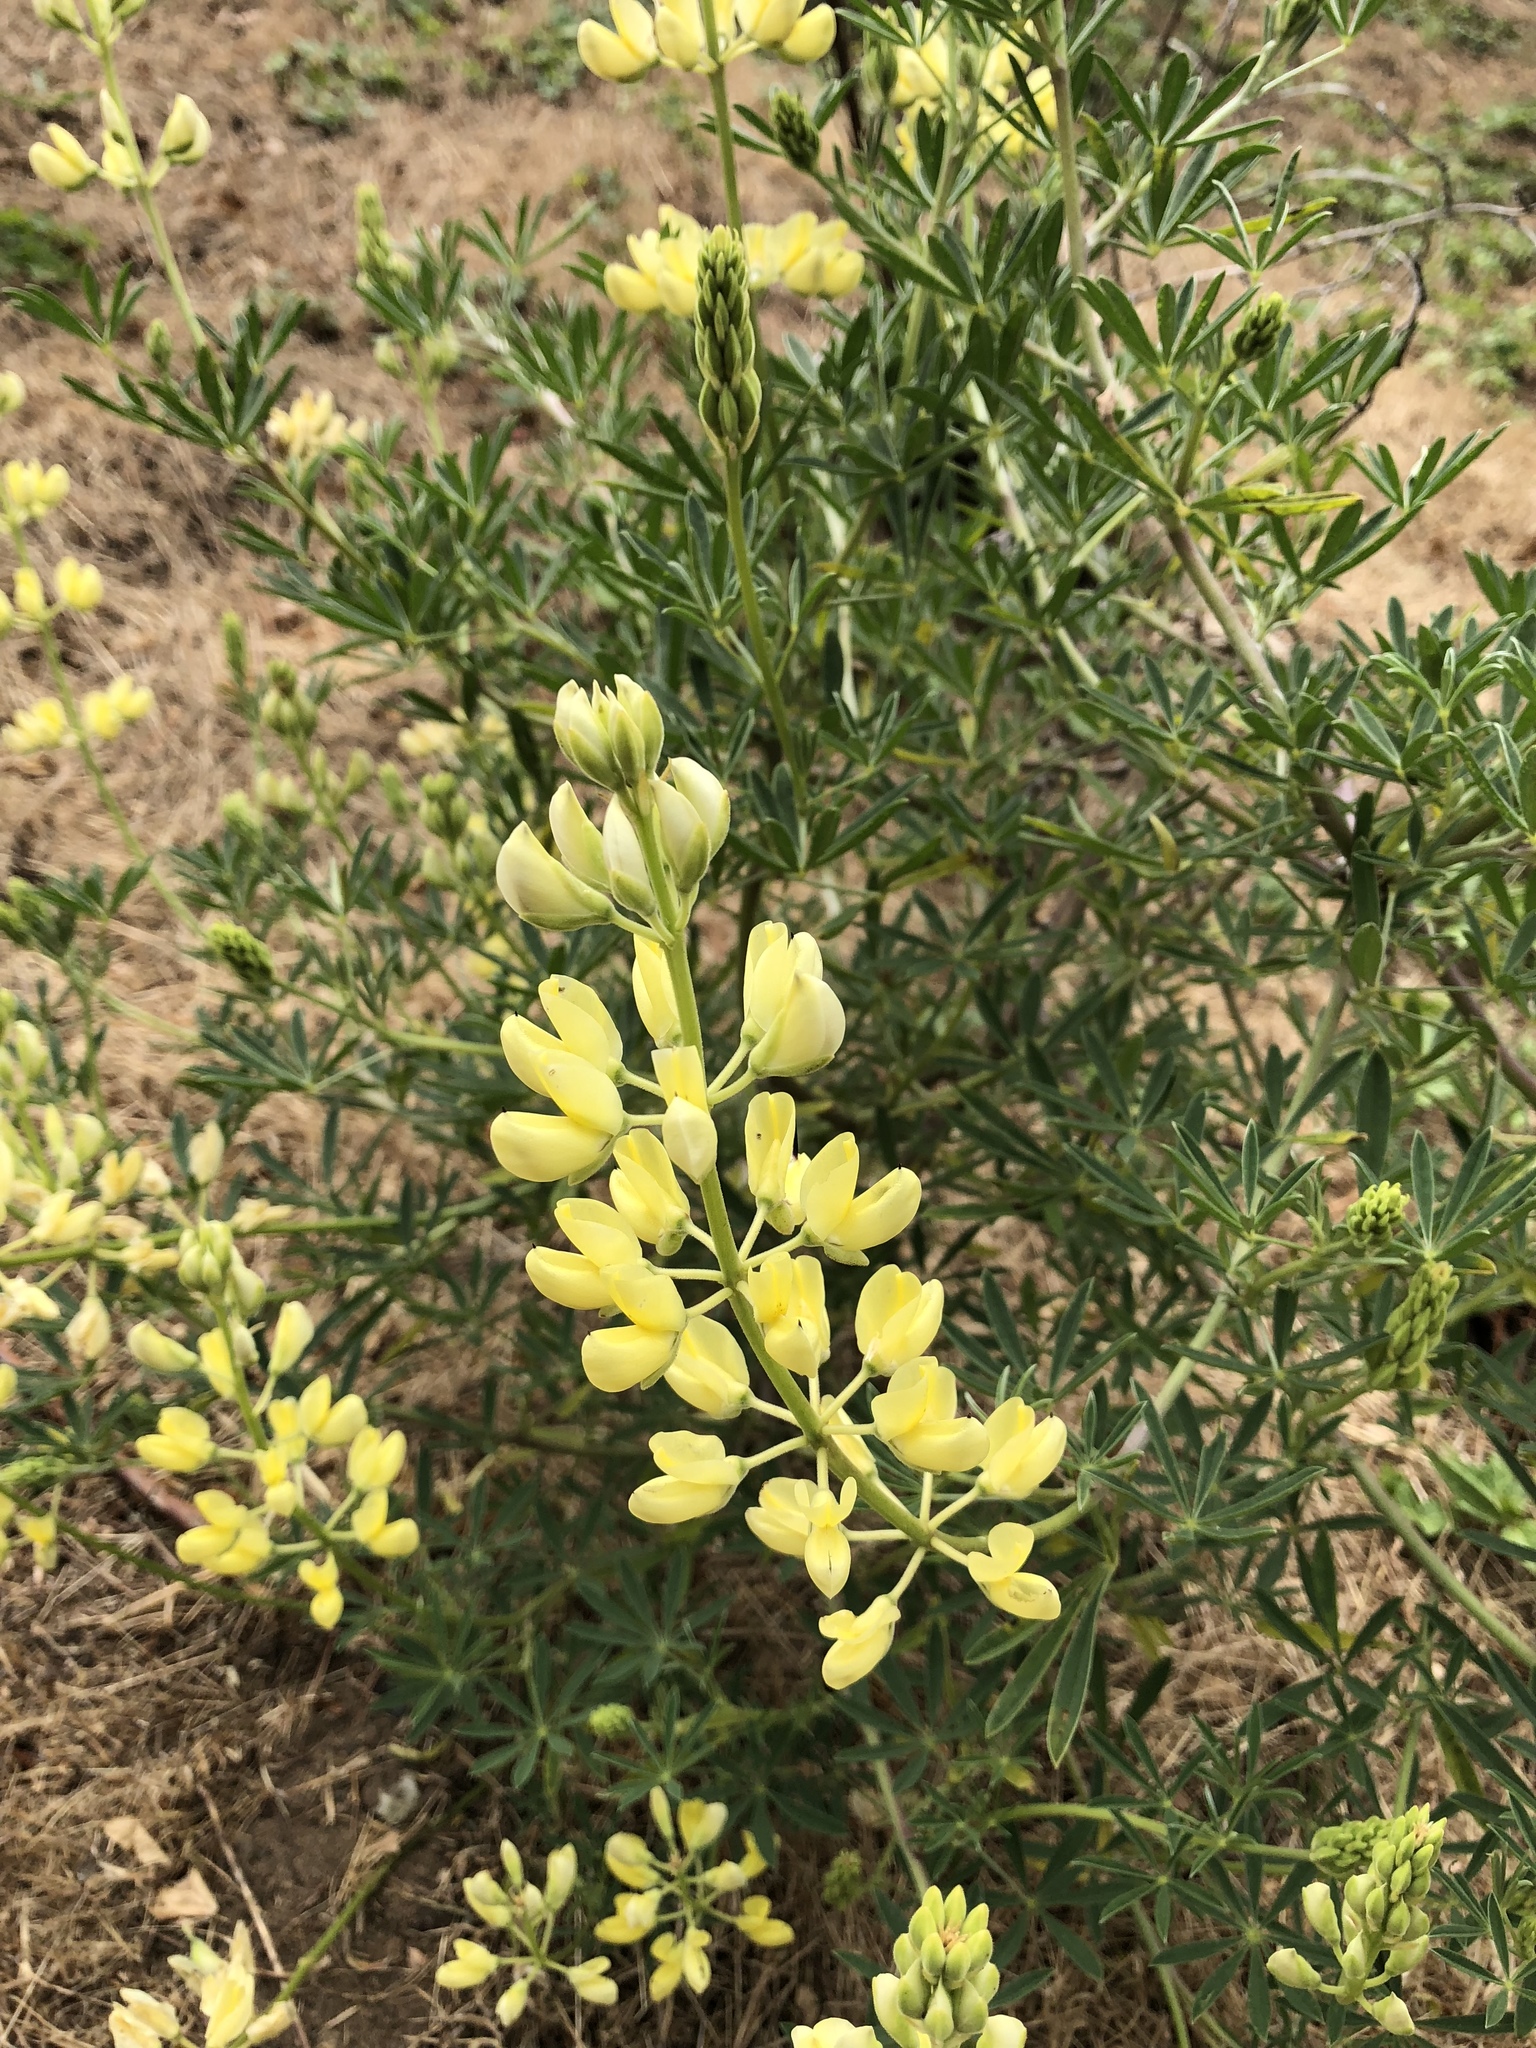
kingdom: Plantae
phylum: Tracheophyta
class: Magnoliopsida
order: Fabales
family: Fabaceae
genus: Lupinus
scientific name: Lupinus arboreus
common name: Yellow bush lupine
